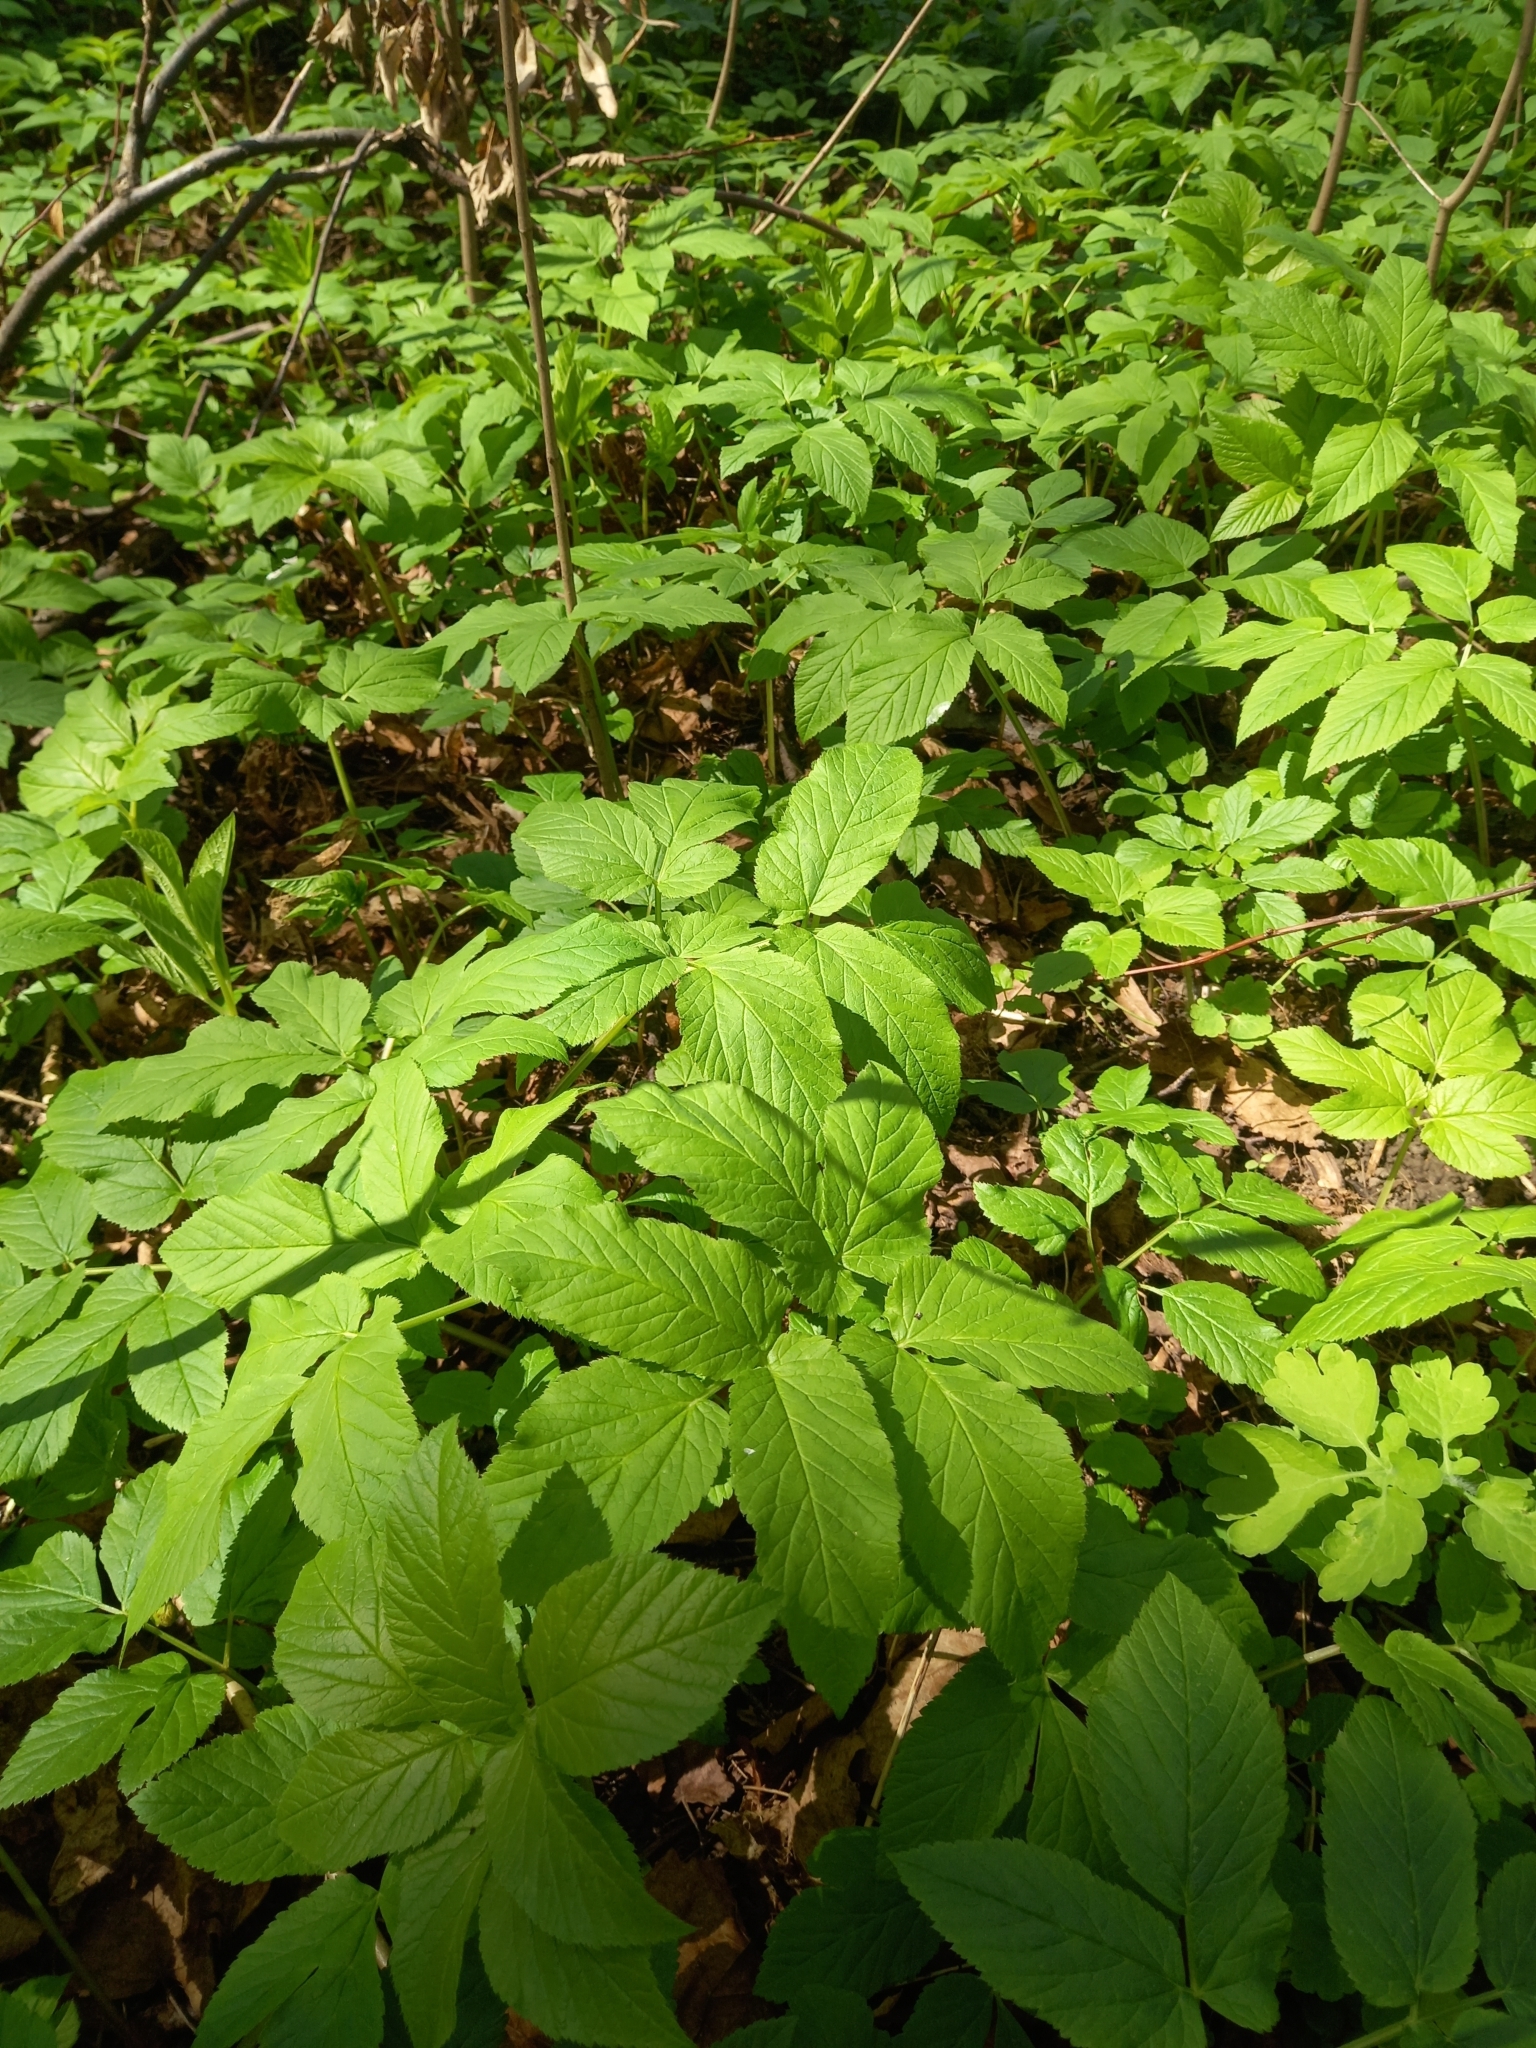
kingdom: Plantae
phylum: Tracheophyta
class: Magnoliopsida
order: Apiales
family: Apiaceae
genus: Aegopodium
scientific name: Aegopodium podagraria
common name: Ground-elder
